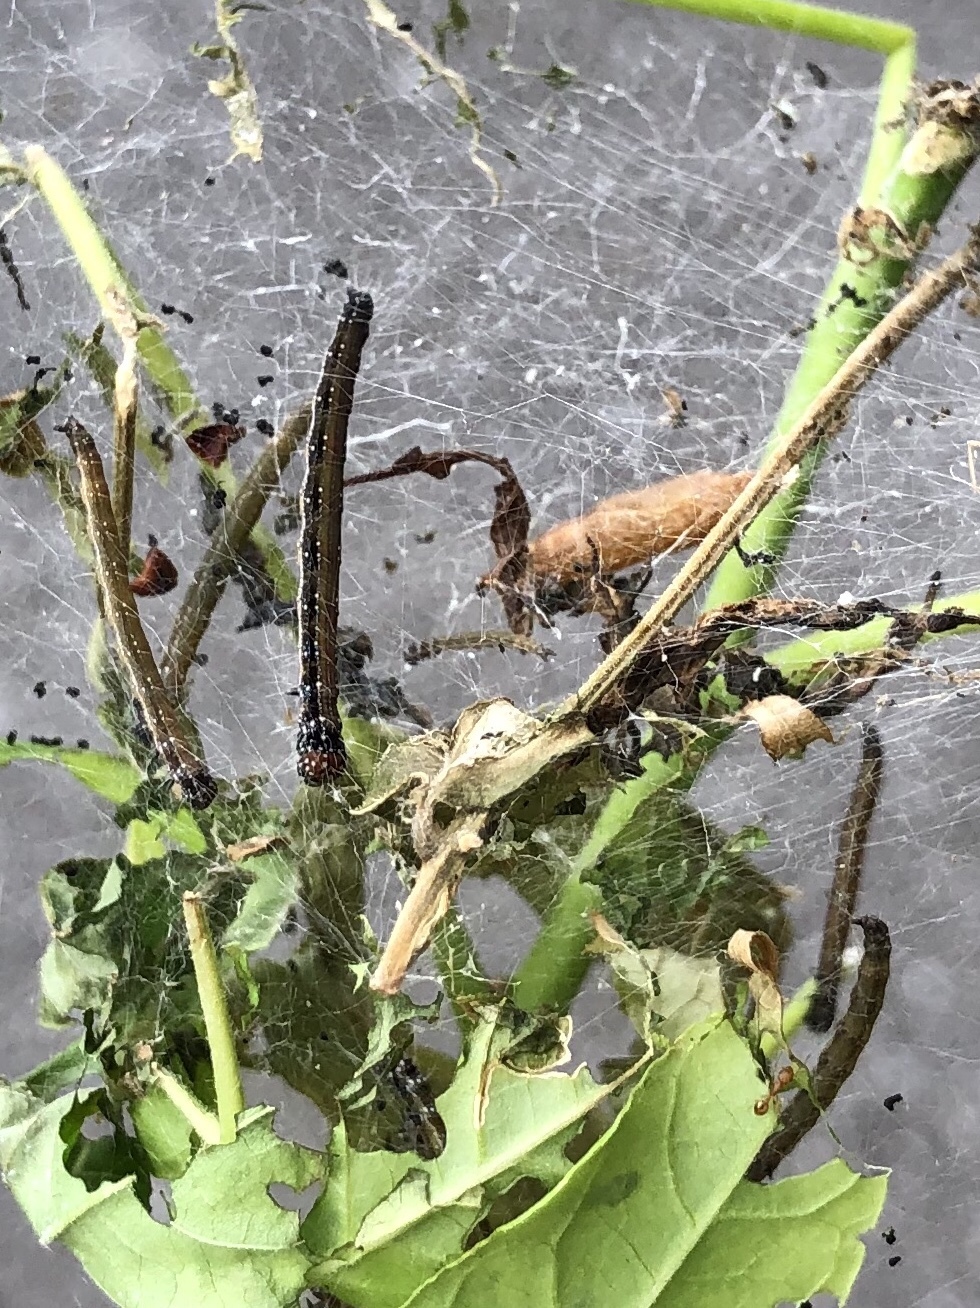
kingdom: Animalia
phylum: Arthropoda
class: Insecta
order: Lepidoptera
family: Attevidae
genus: Atteva
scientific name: Atteva punctella
